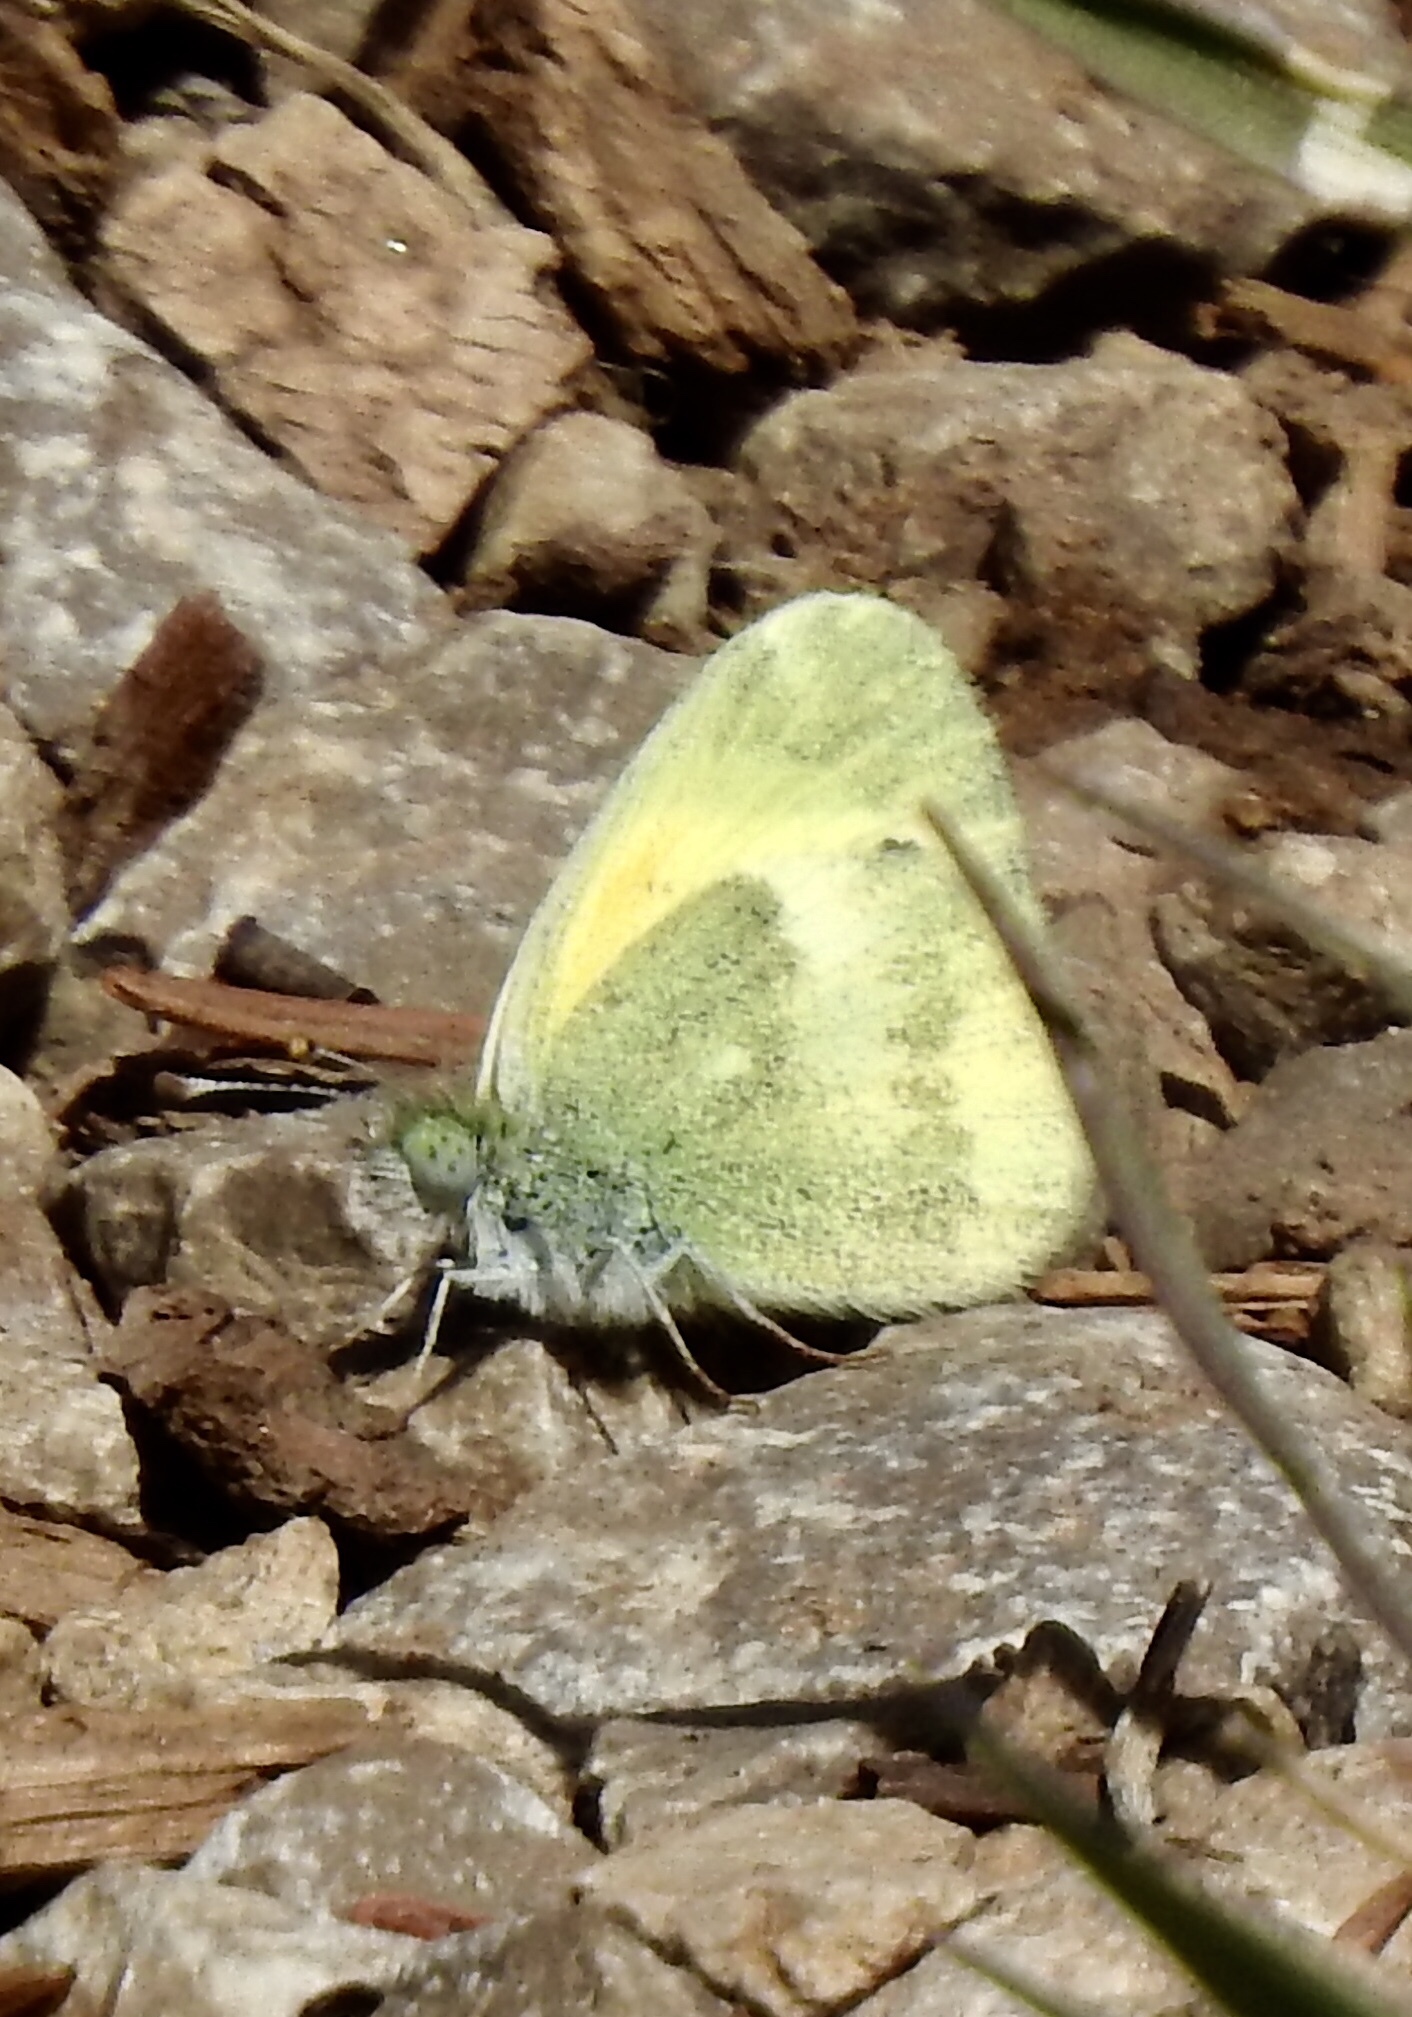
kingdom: Animalia
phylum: Arthropoda
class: Insecta
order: Lepidoptera
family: Pieridae
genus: Nathalis
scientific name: Nathalis iole
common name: Dainty sulphur
